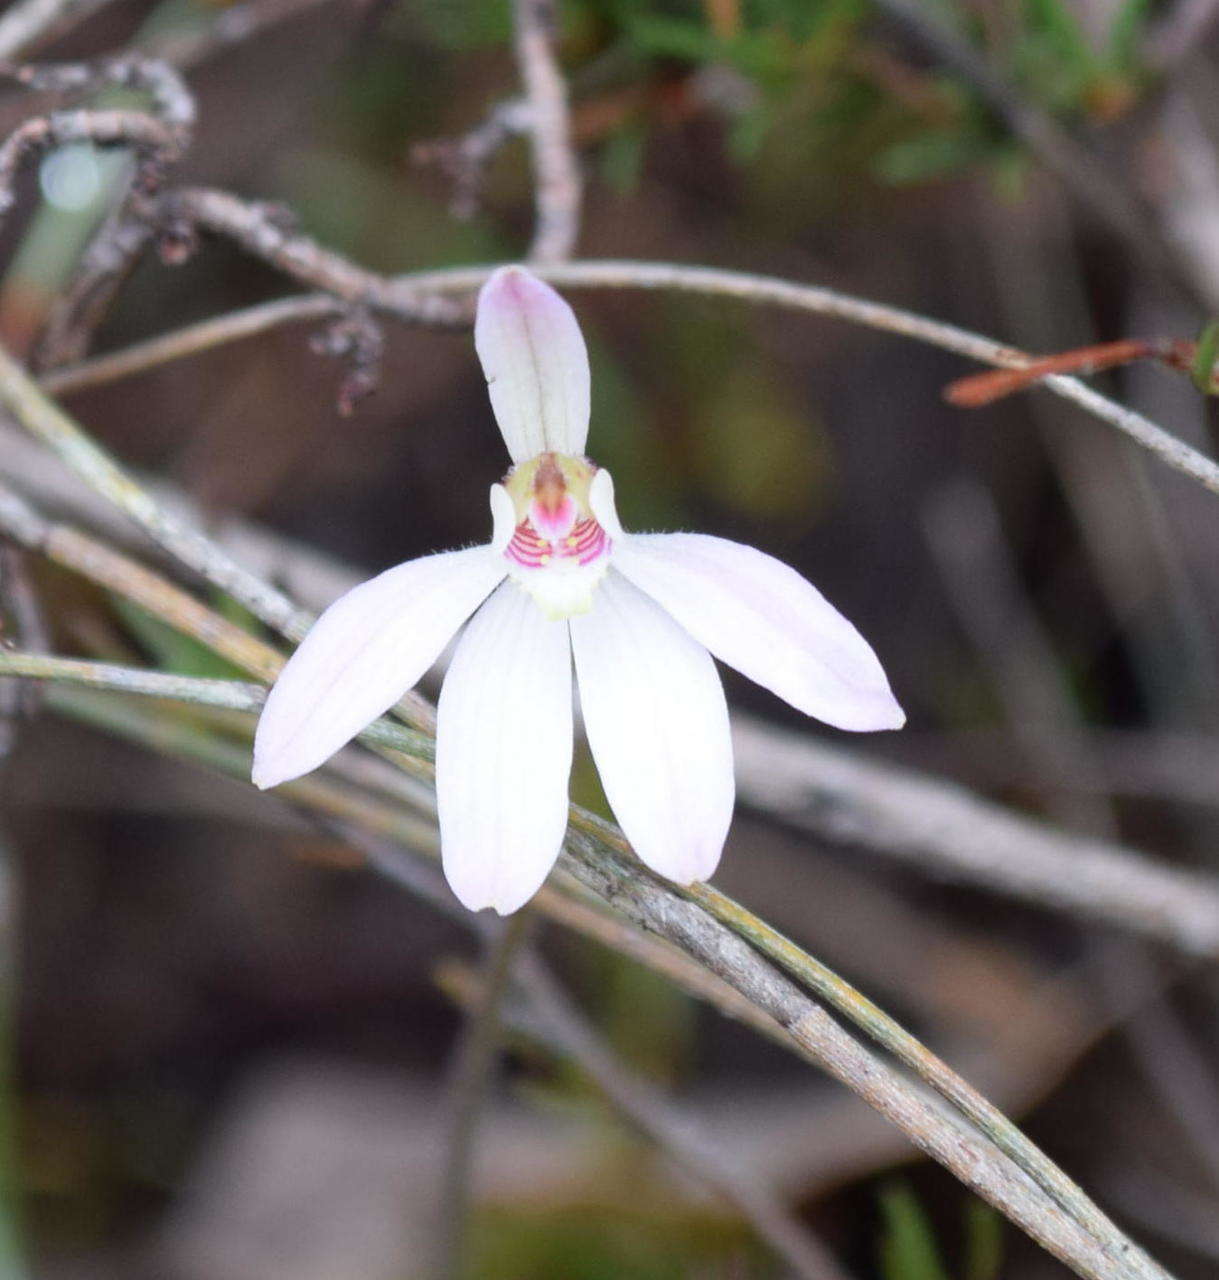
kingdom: Plantae
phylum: Tracheophyta
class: Liliopsida
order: Asparagales
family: Orchidaceae
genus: Caladenia
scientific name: Caladenia carnea
